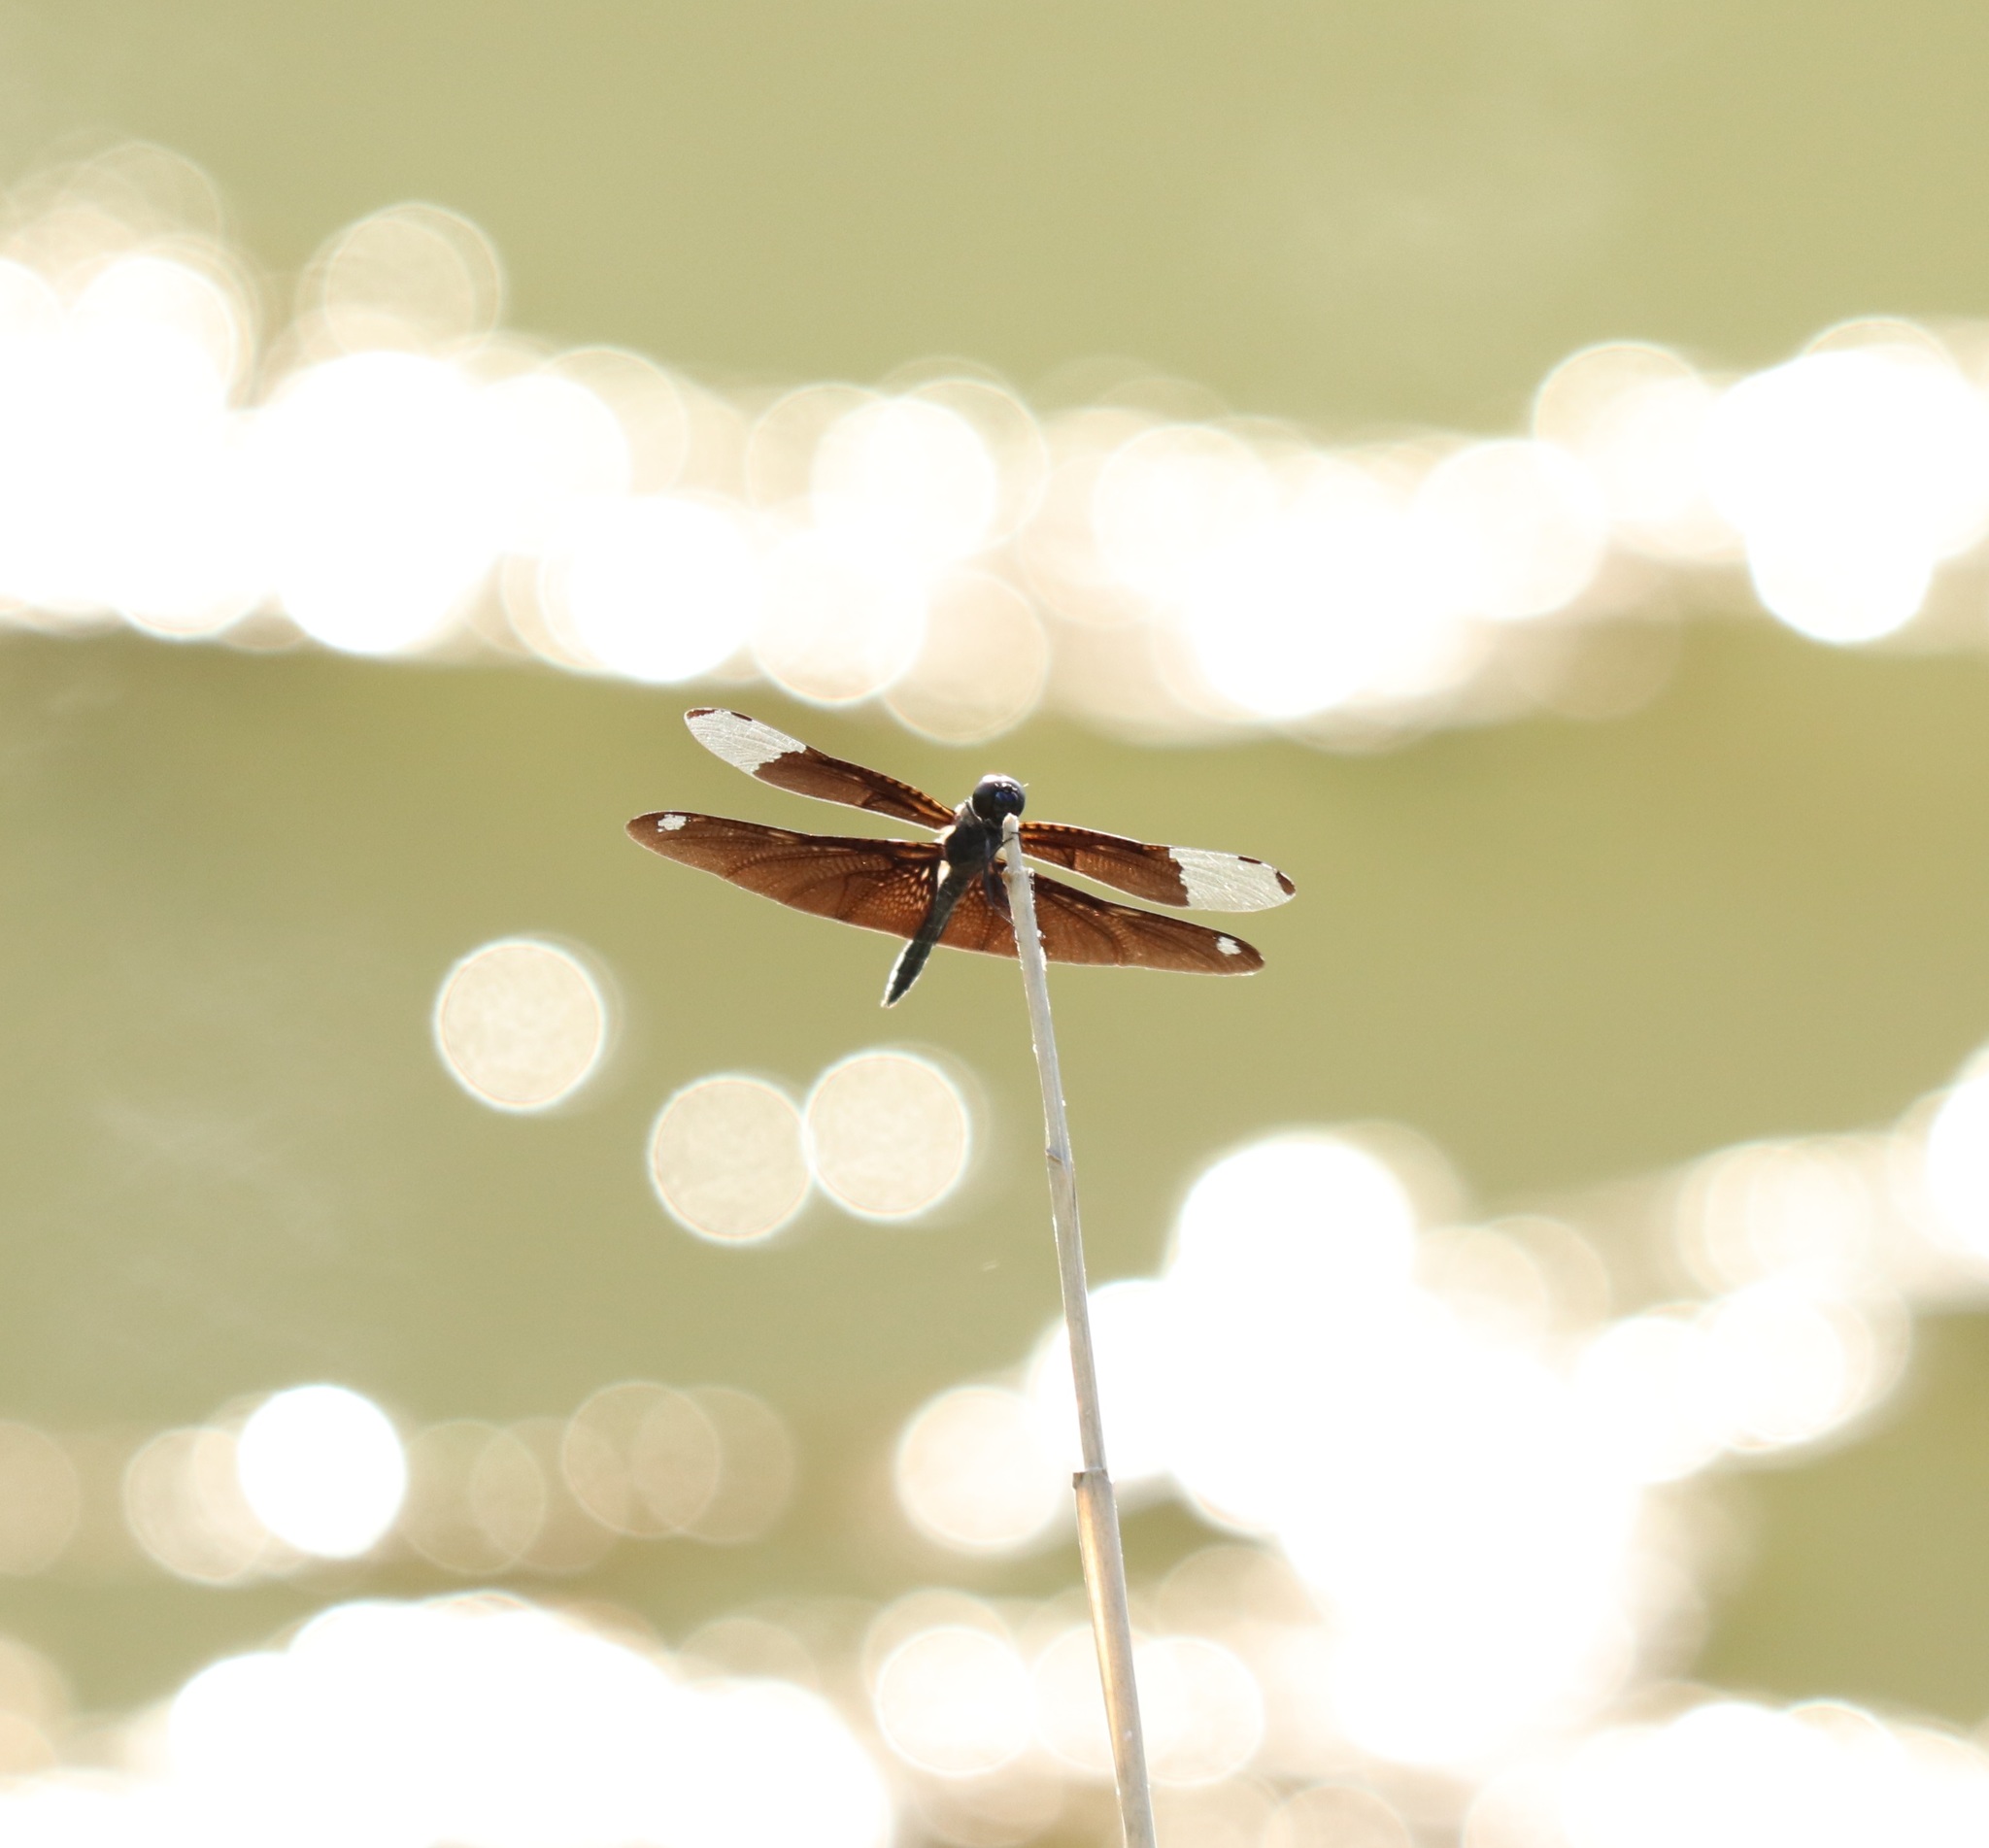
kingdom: Animalia
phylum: Arthropoda
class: Insecta
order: Odonata
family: Libellulidae
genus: Rhyothemis
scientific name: Rhyothemis fuliginosa
